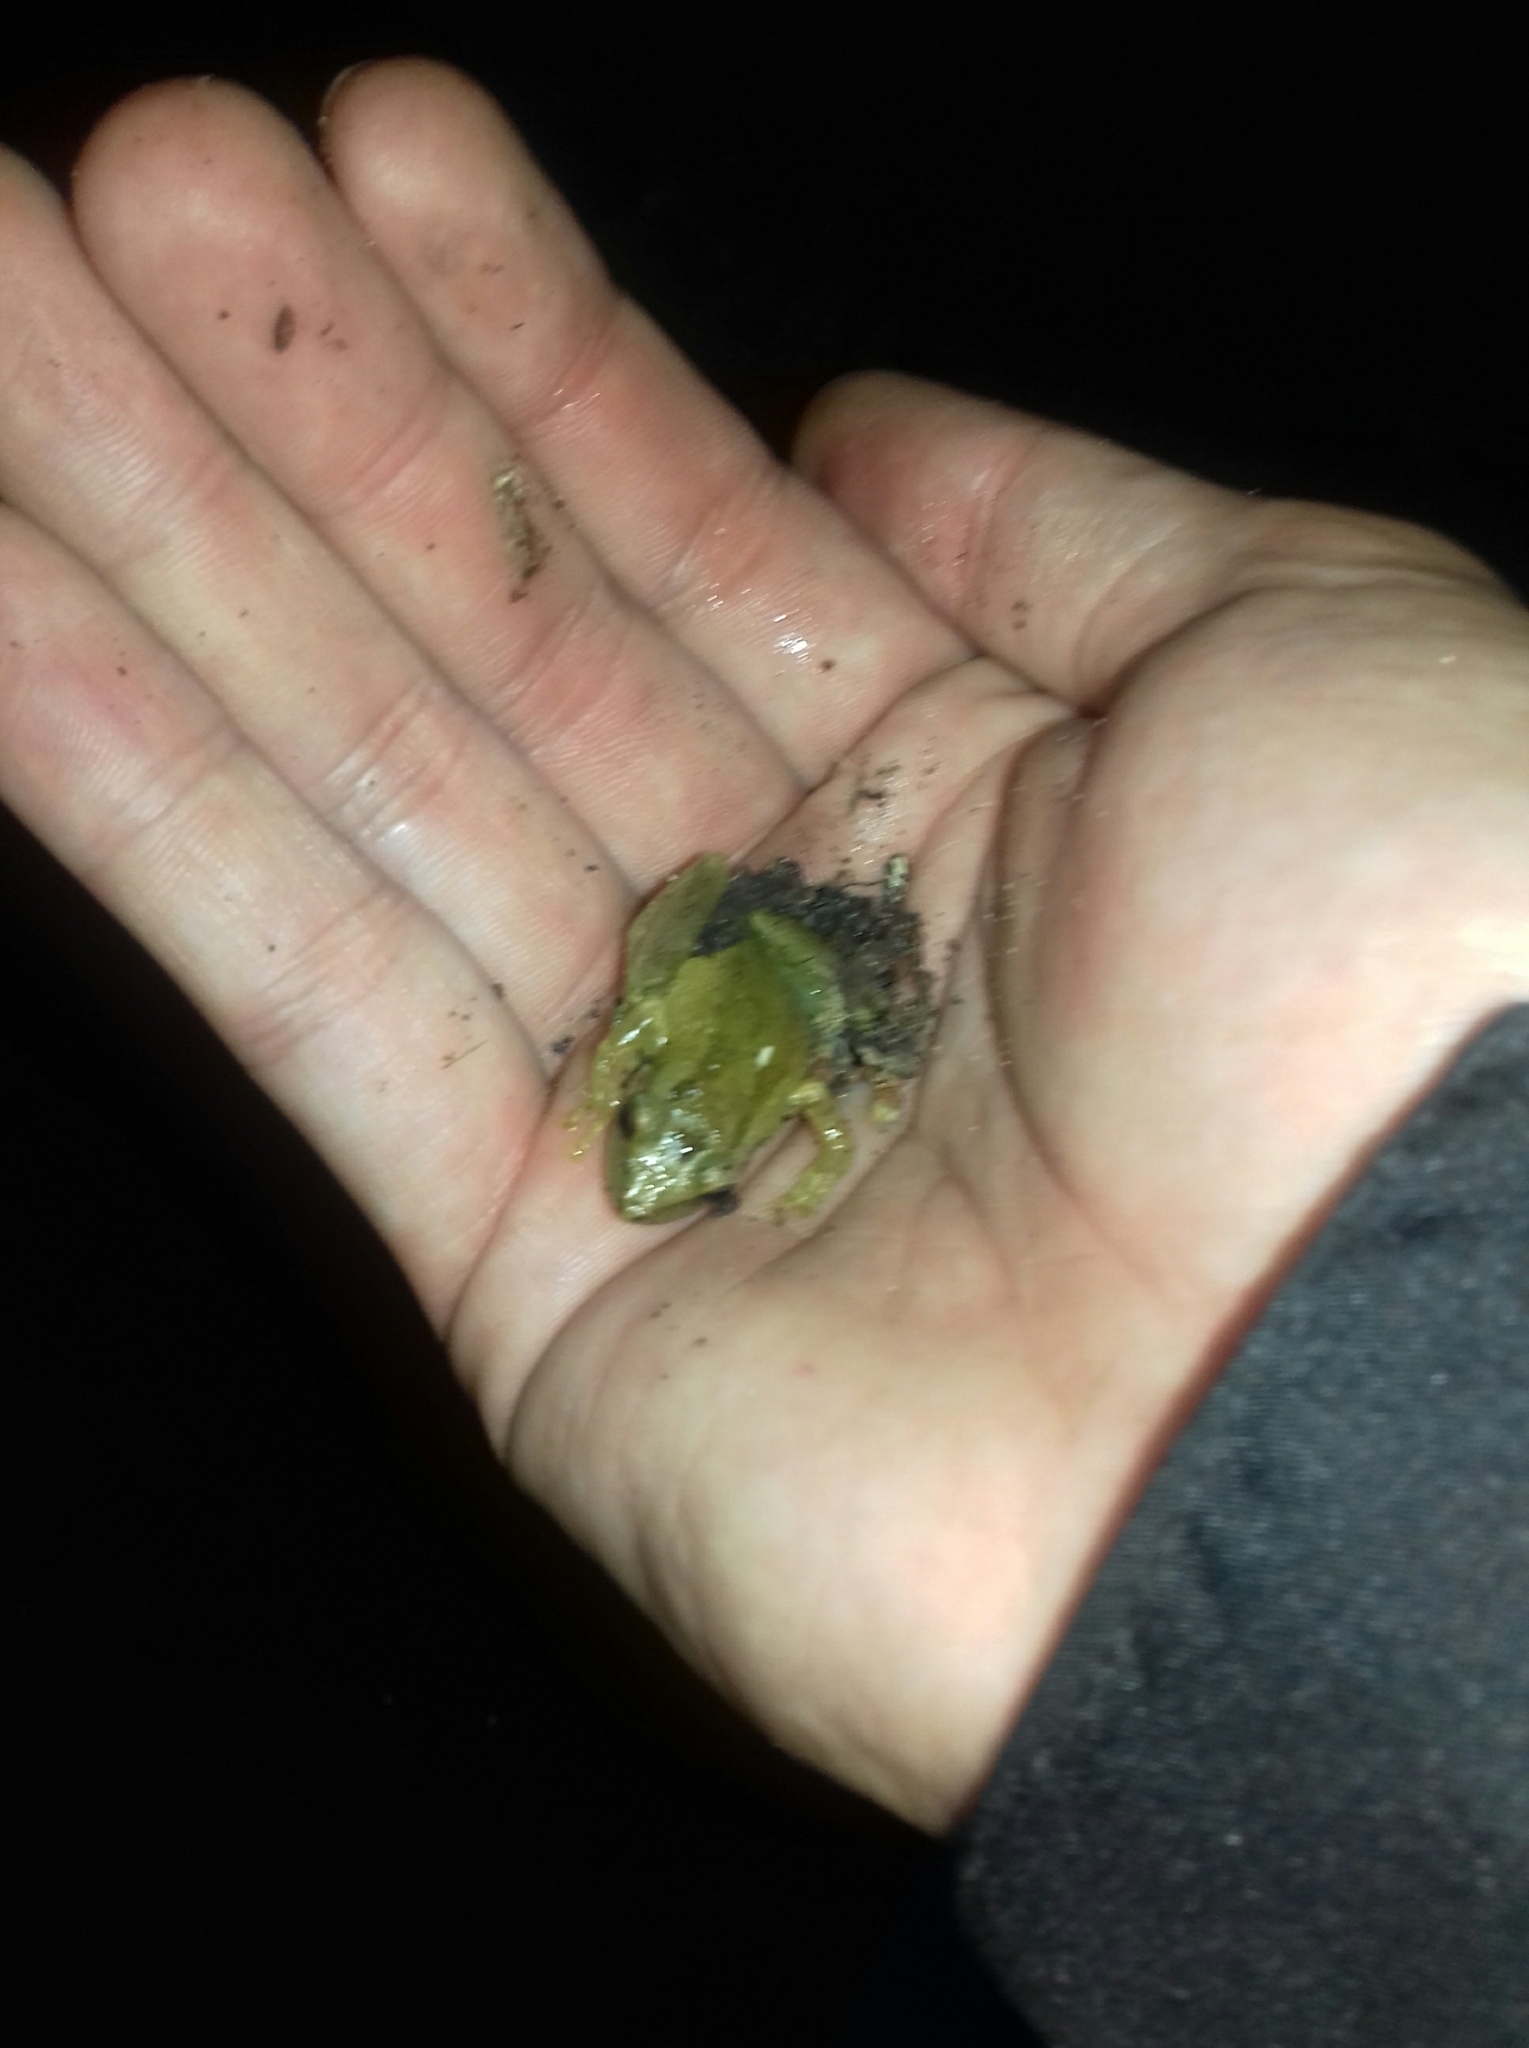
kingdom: Animalia
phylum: Chordata
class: Amphibia
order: Anura
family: Hylidae
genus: Scinax
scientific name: Scinax imbegue
